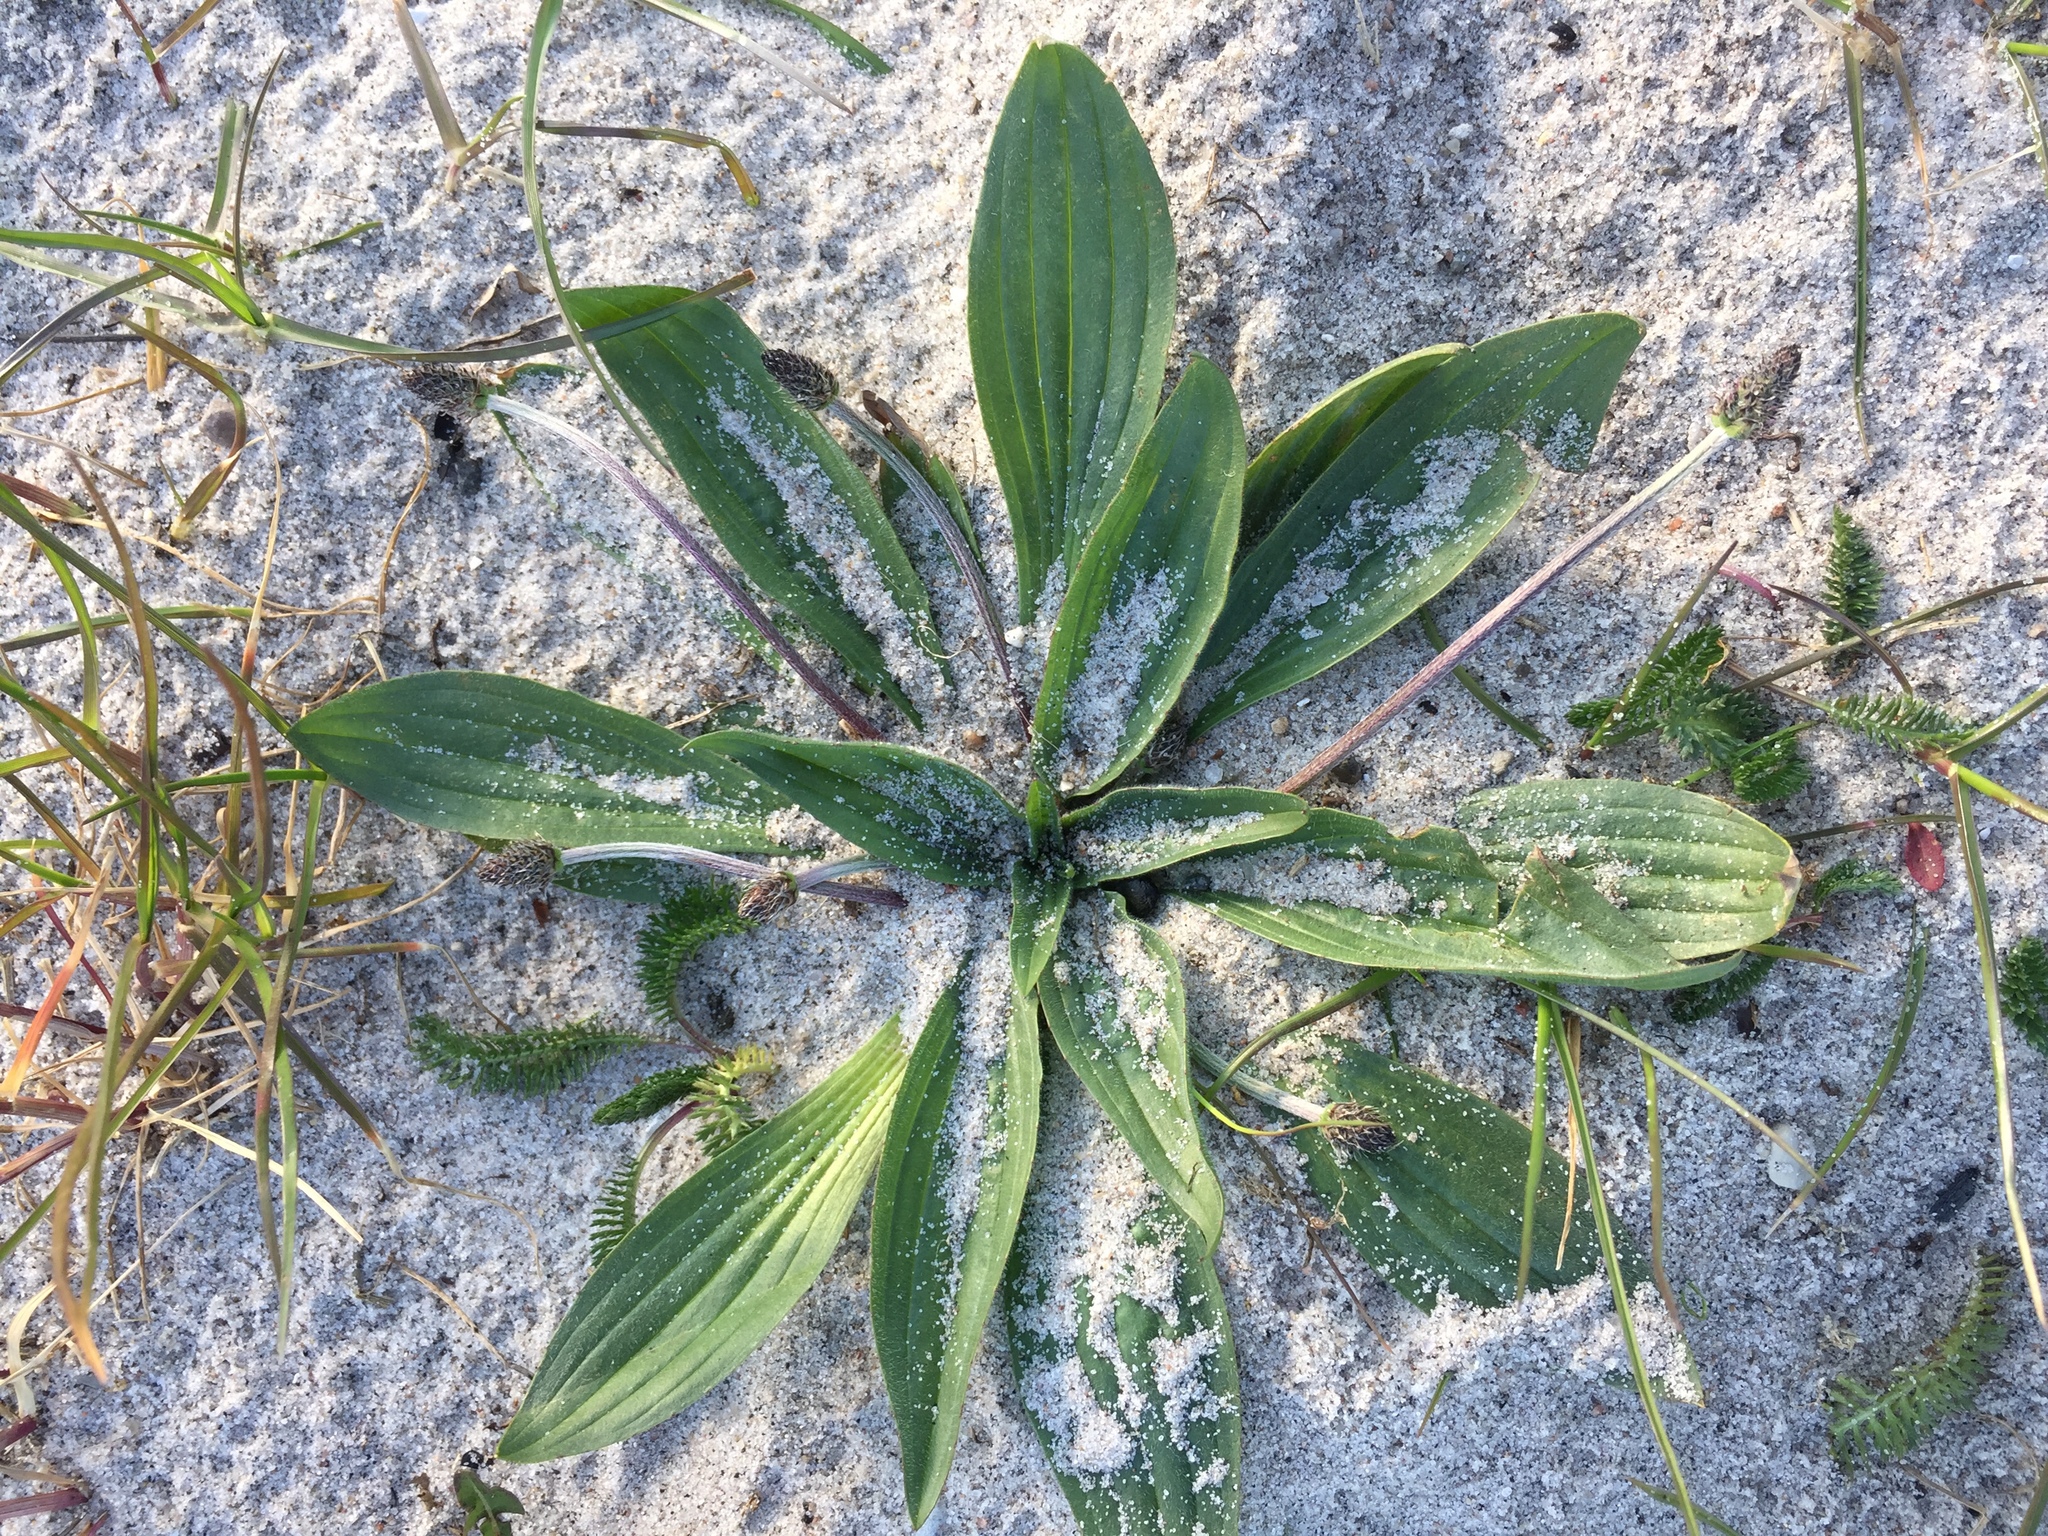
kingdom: Plantae
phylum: Tracheophyta
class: Magnoliopsida
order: Lamiales
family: Plantaginaceae
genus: Plantago
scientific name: Plantago lanceolata
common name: Ribwort plantain
